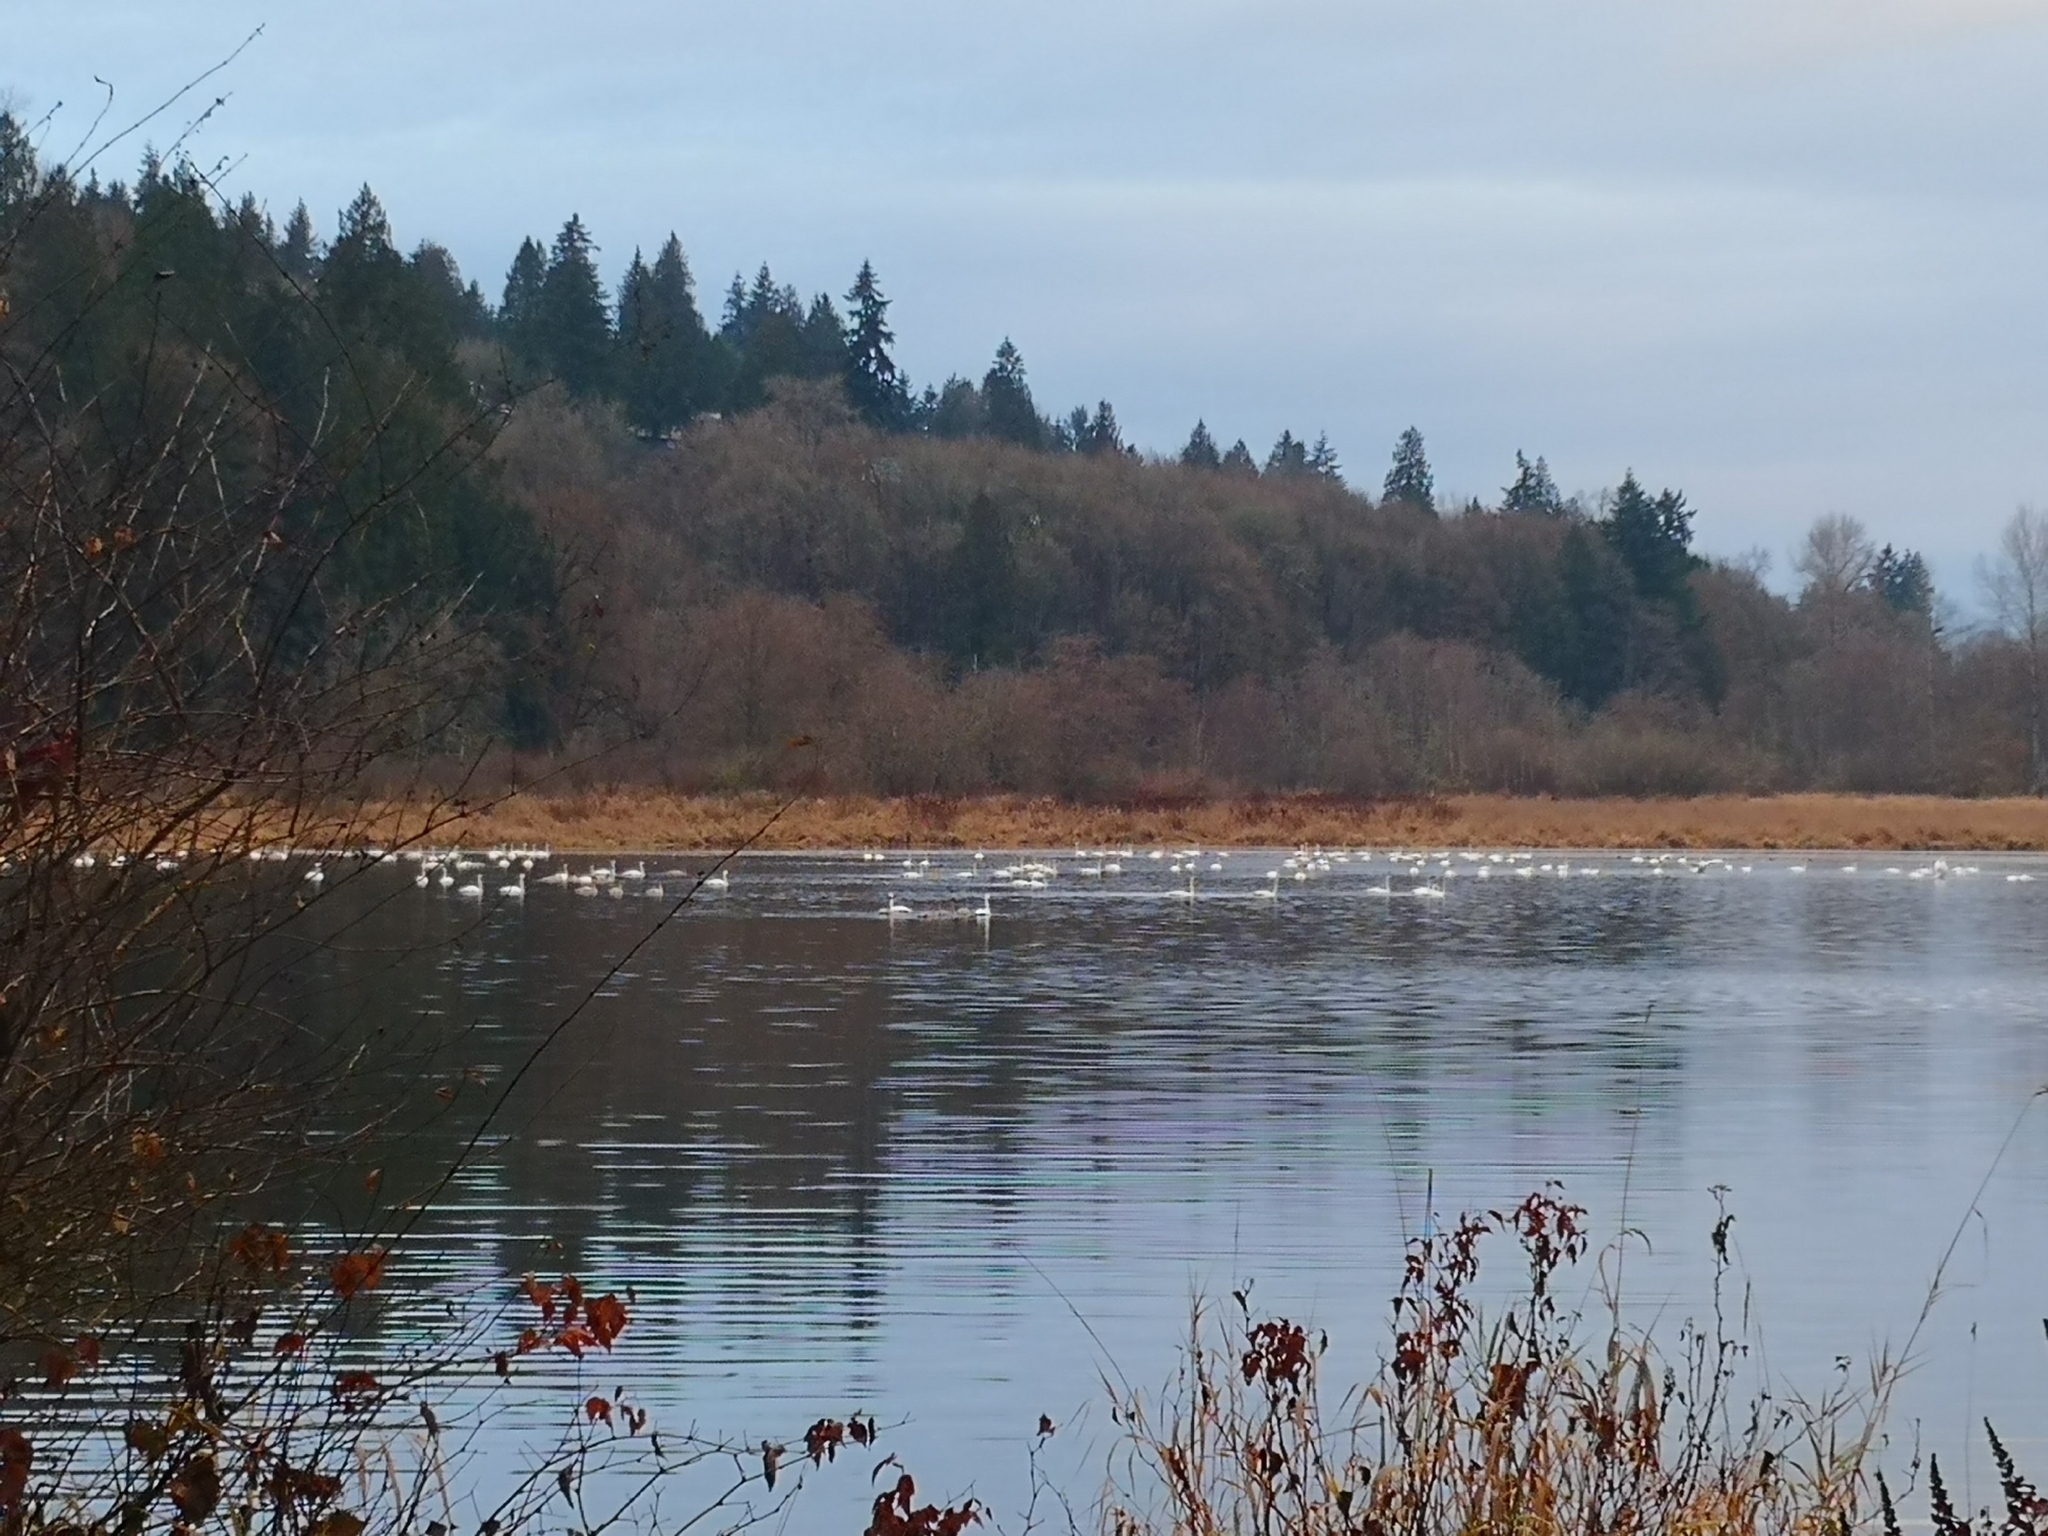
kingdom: Animalia
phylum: Chordata
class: Aves
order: Anseriformes
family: Anatidae
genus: Cygnus
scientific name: Cygnus buccinator
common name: Trumpeter swan
